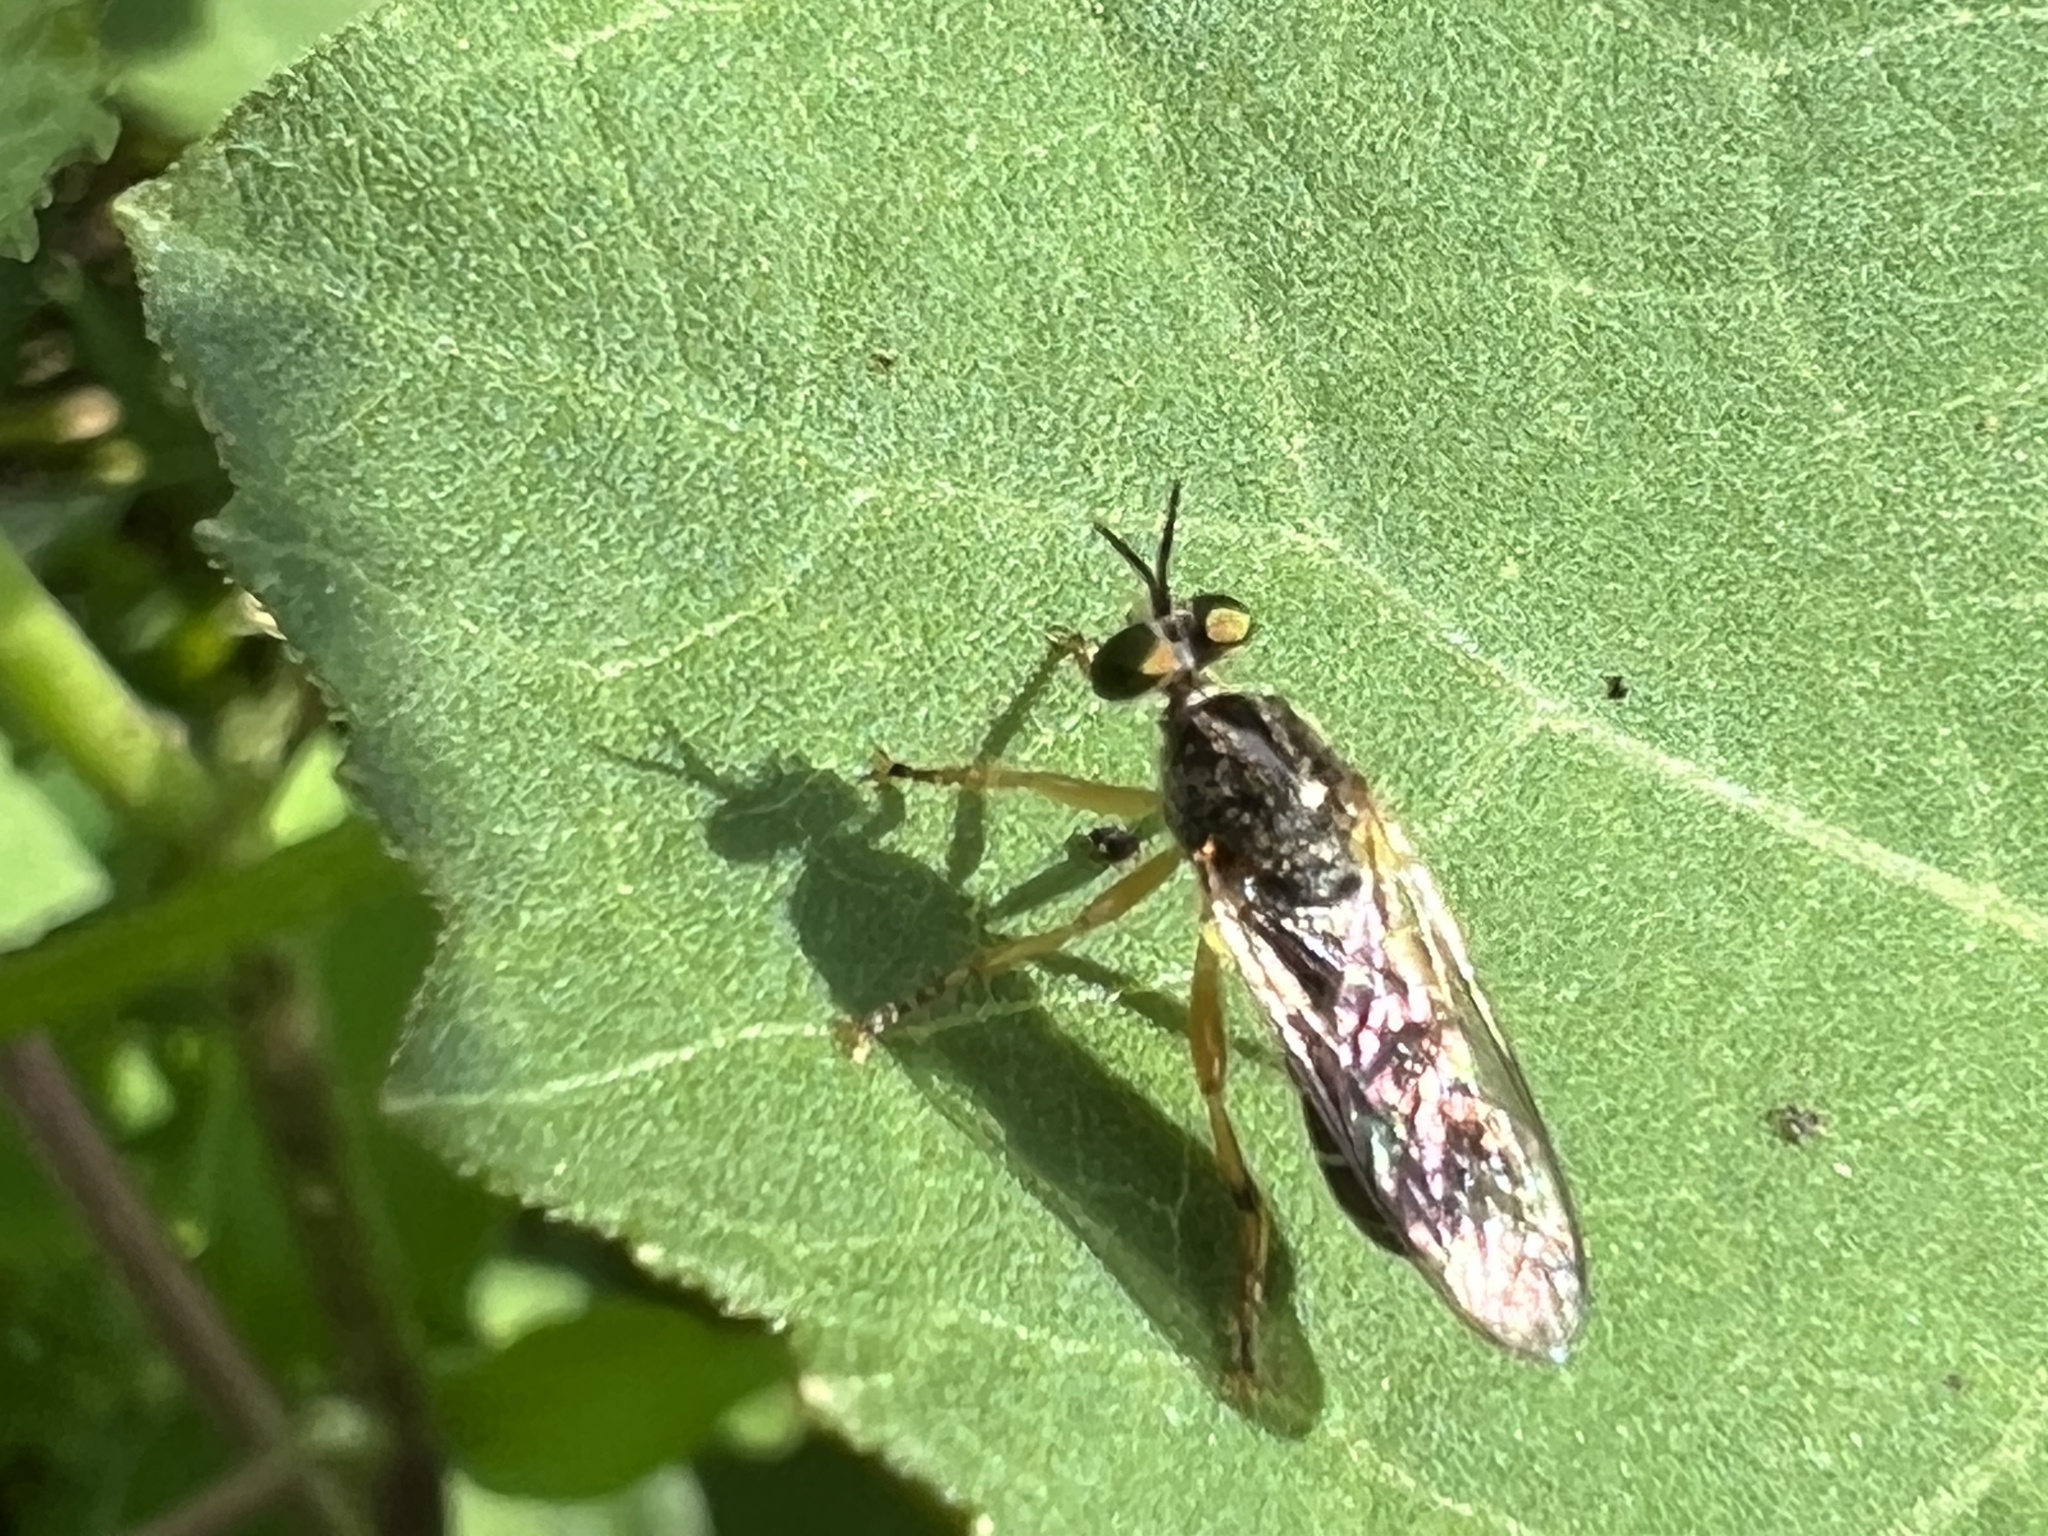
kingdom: Animalia
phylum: Arthropoda
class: Insecta
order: Diptera
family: Asilidae
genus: Atomosia
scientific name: Atomosia rufipes
